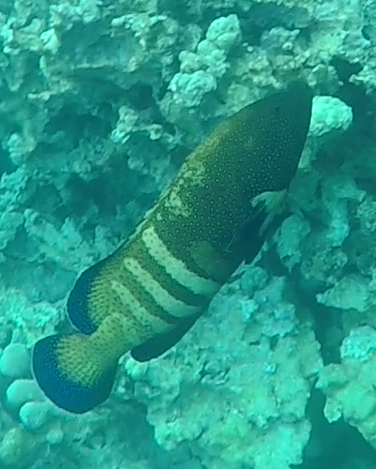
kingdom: Animalia
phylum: Chordata
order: Perciformes
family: Serranidae
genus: Cephalopholis
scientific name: Cephalopholis argus
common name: Peacock grouper
